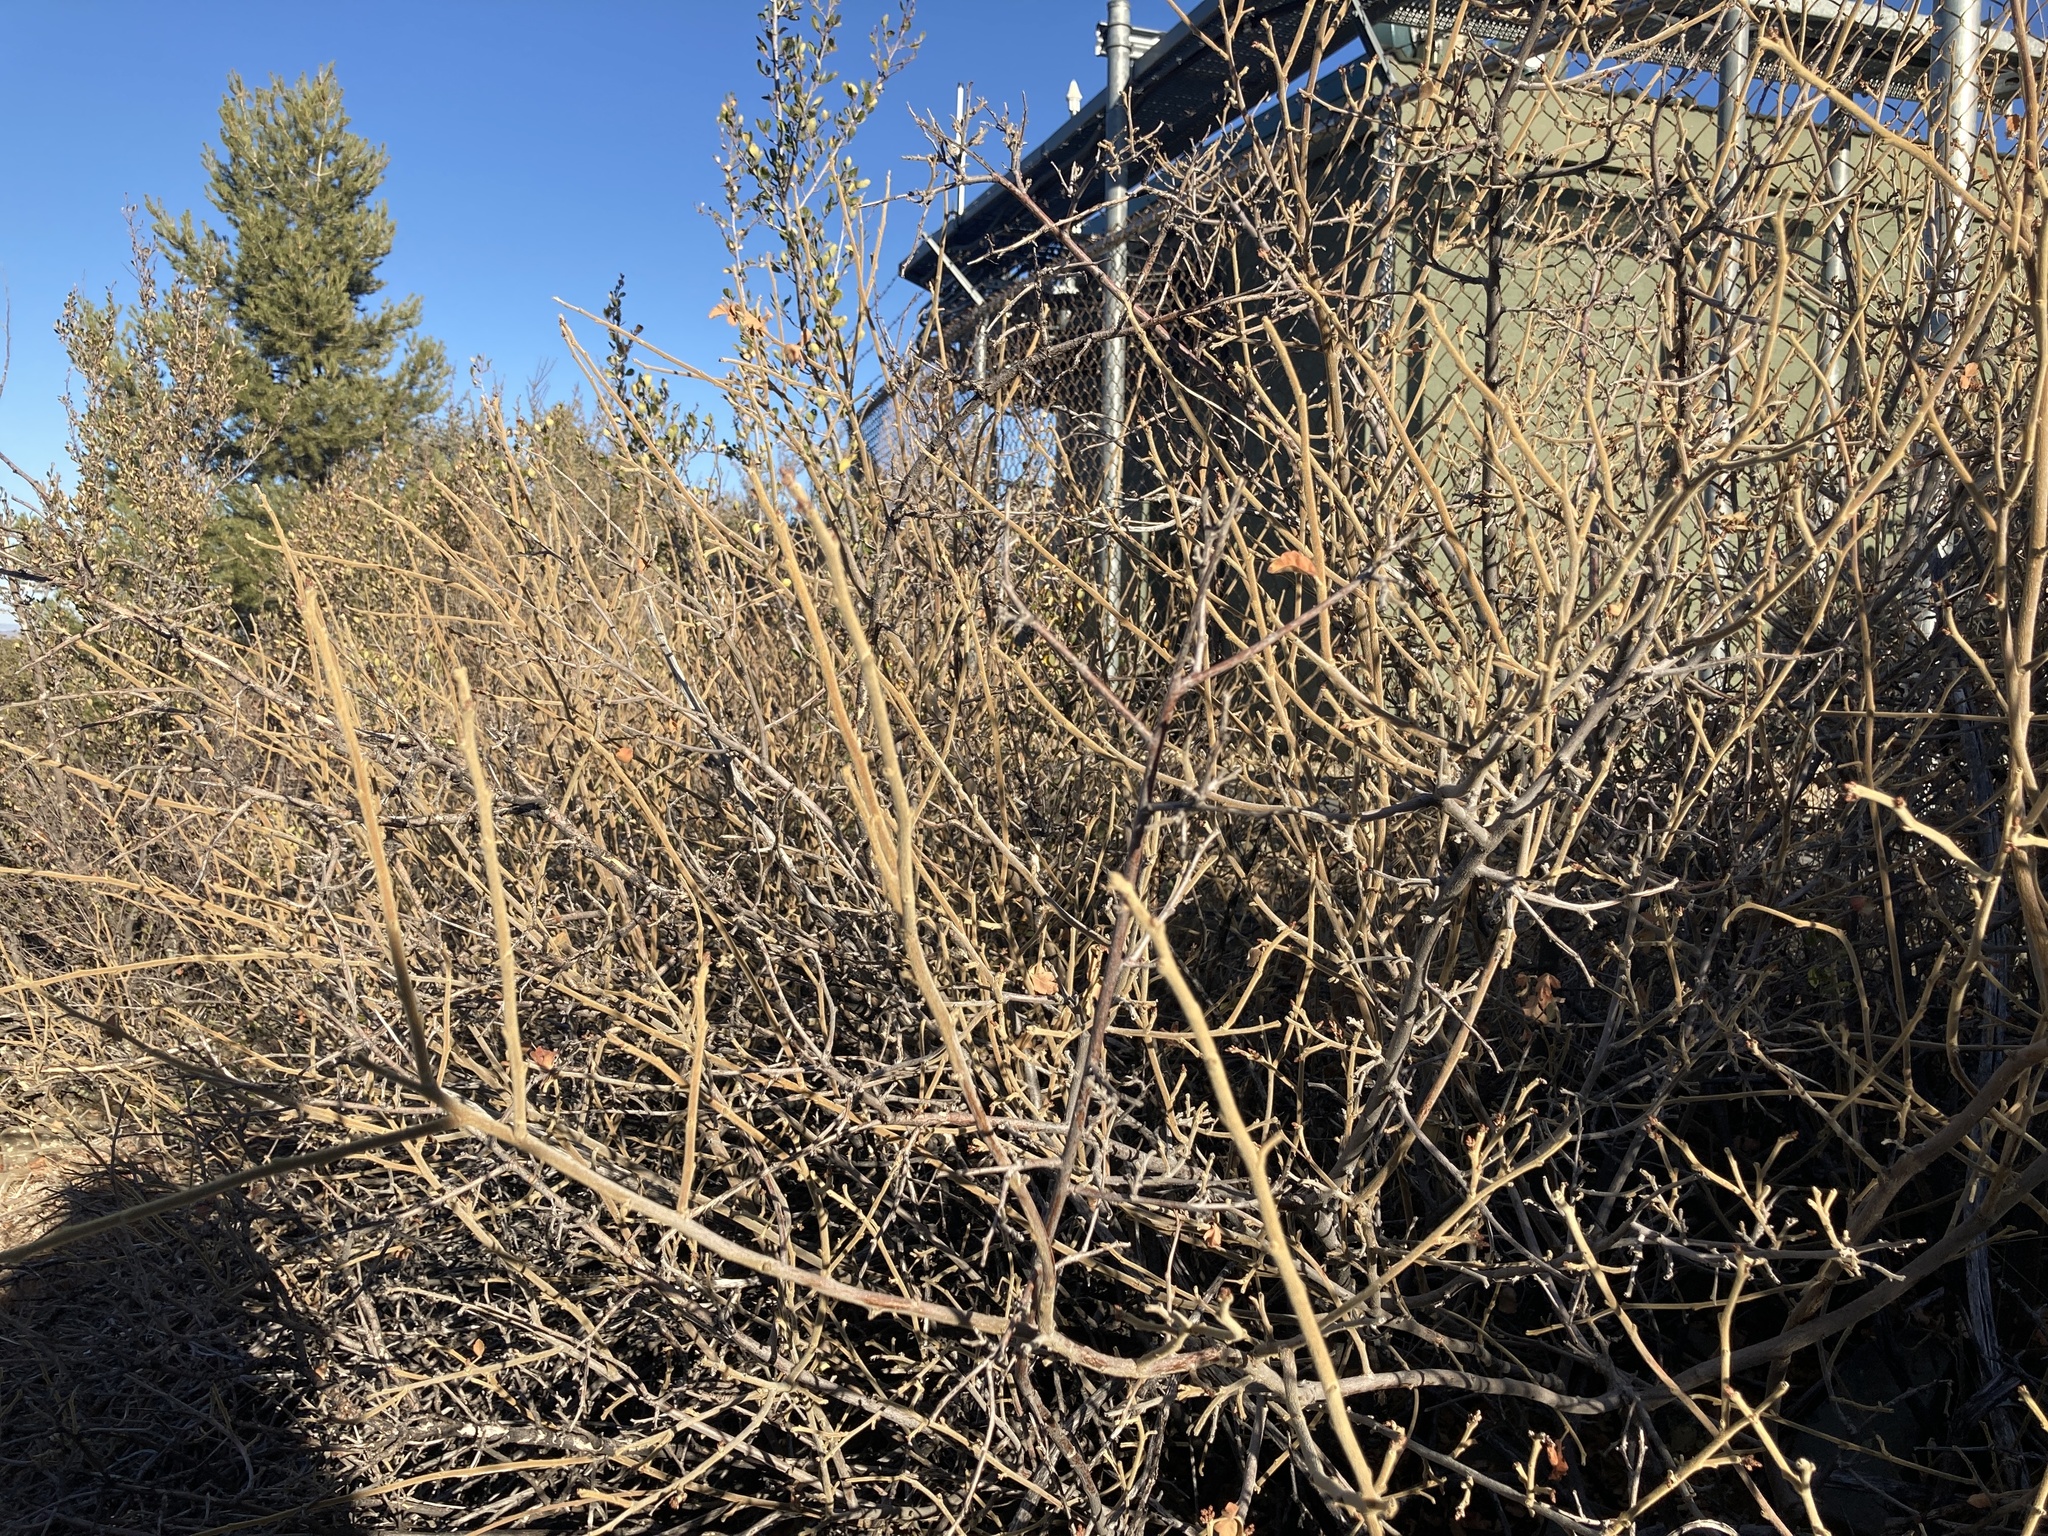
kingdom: Plantae
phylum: Tracheophyta
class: Magnoliopsida
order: Sapindales
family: Anacardiaceae
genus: Rhus
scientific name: Rhus aromatica
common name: Aromatic sumac
